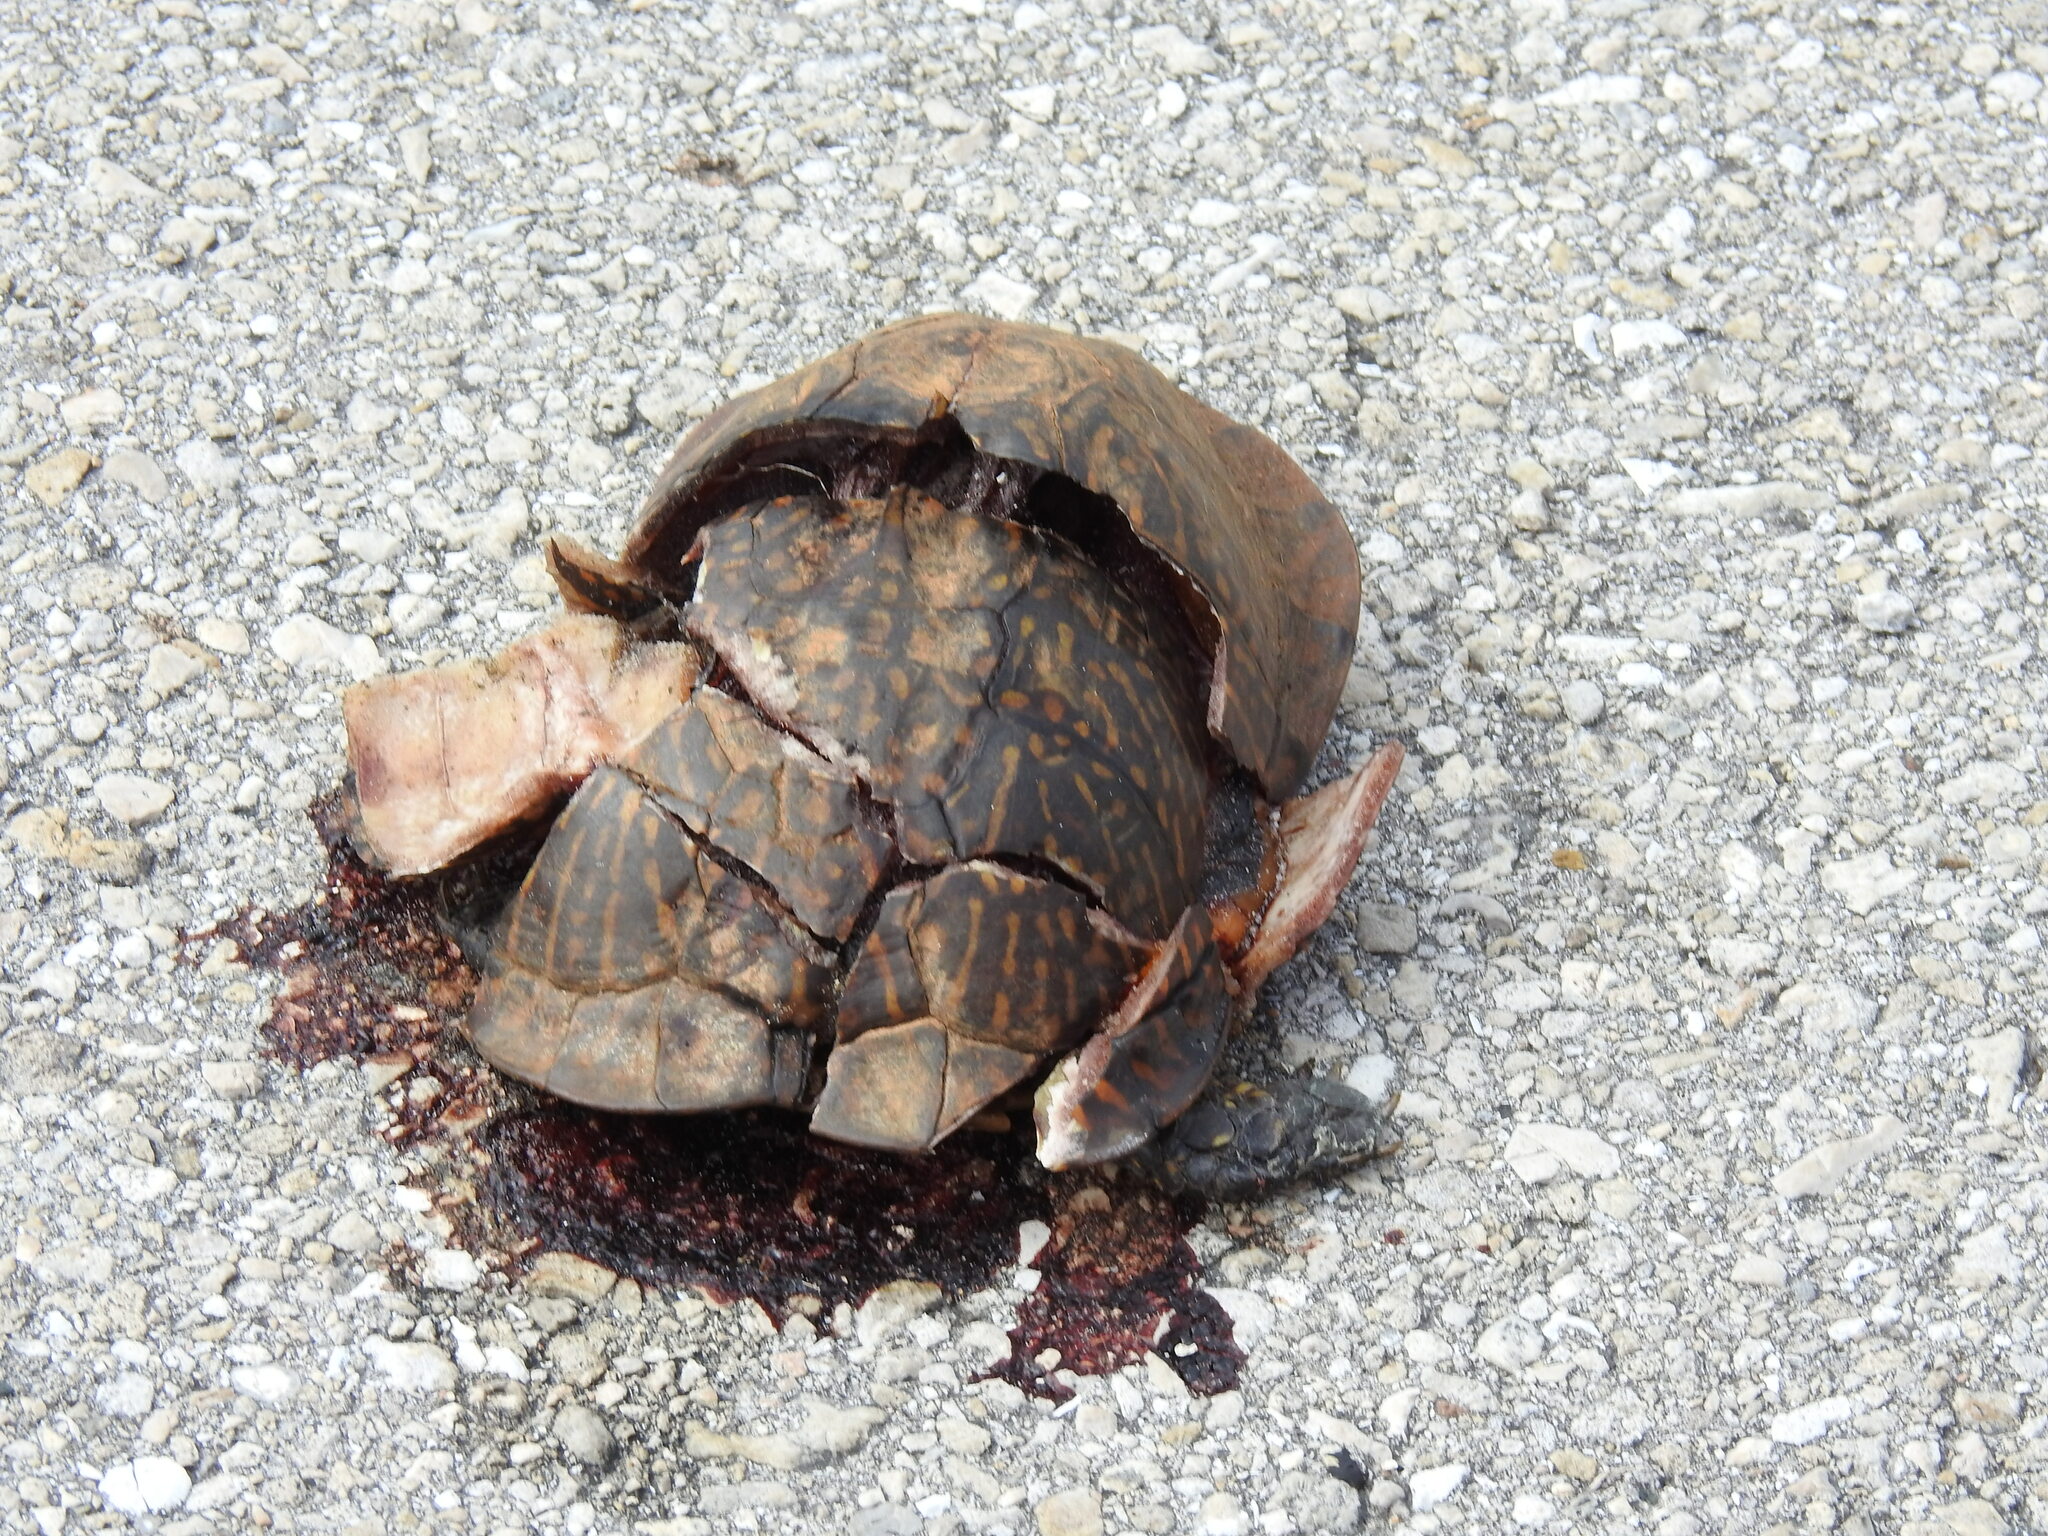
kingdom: Animalia
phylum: Chordata
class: Testudines
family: Emydidae
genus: Terrapene
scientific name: Terrapene carolina
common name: Common box turtle
